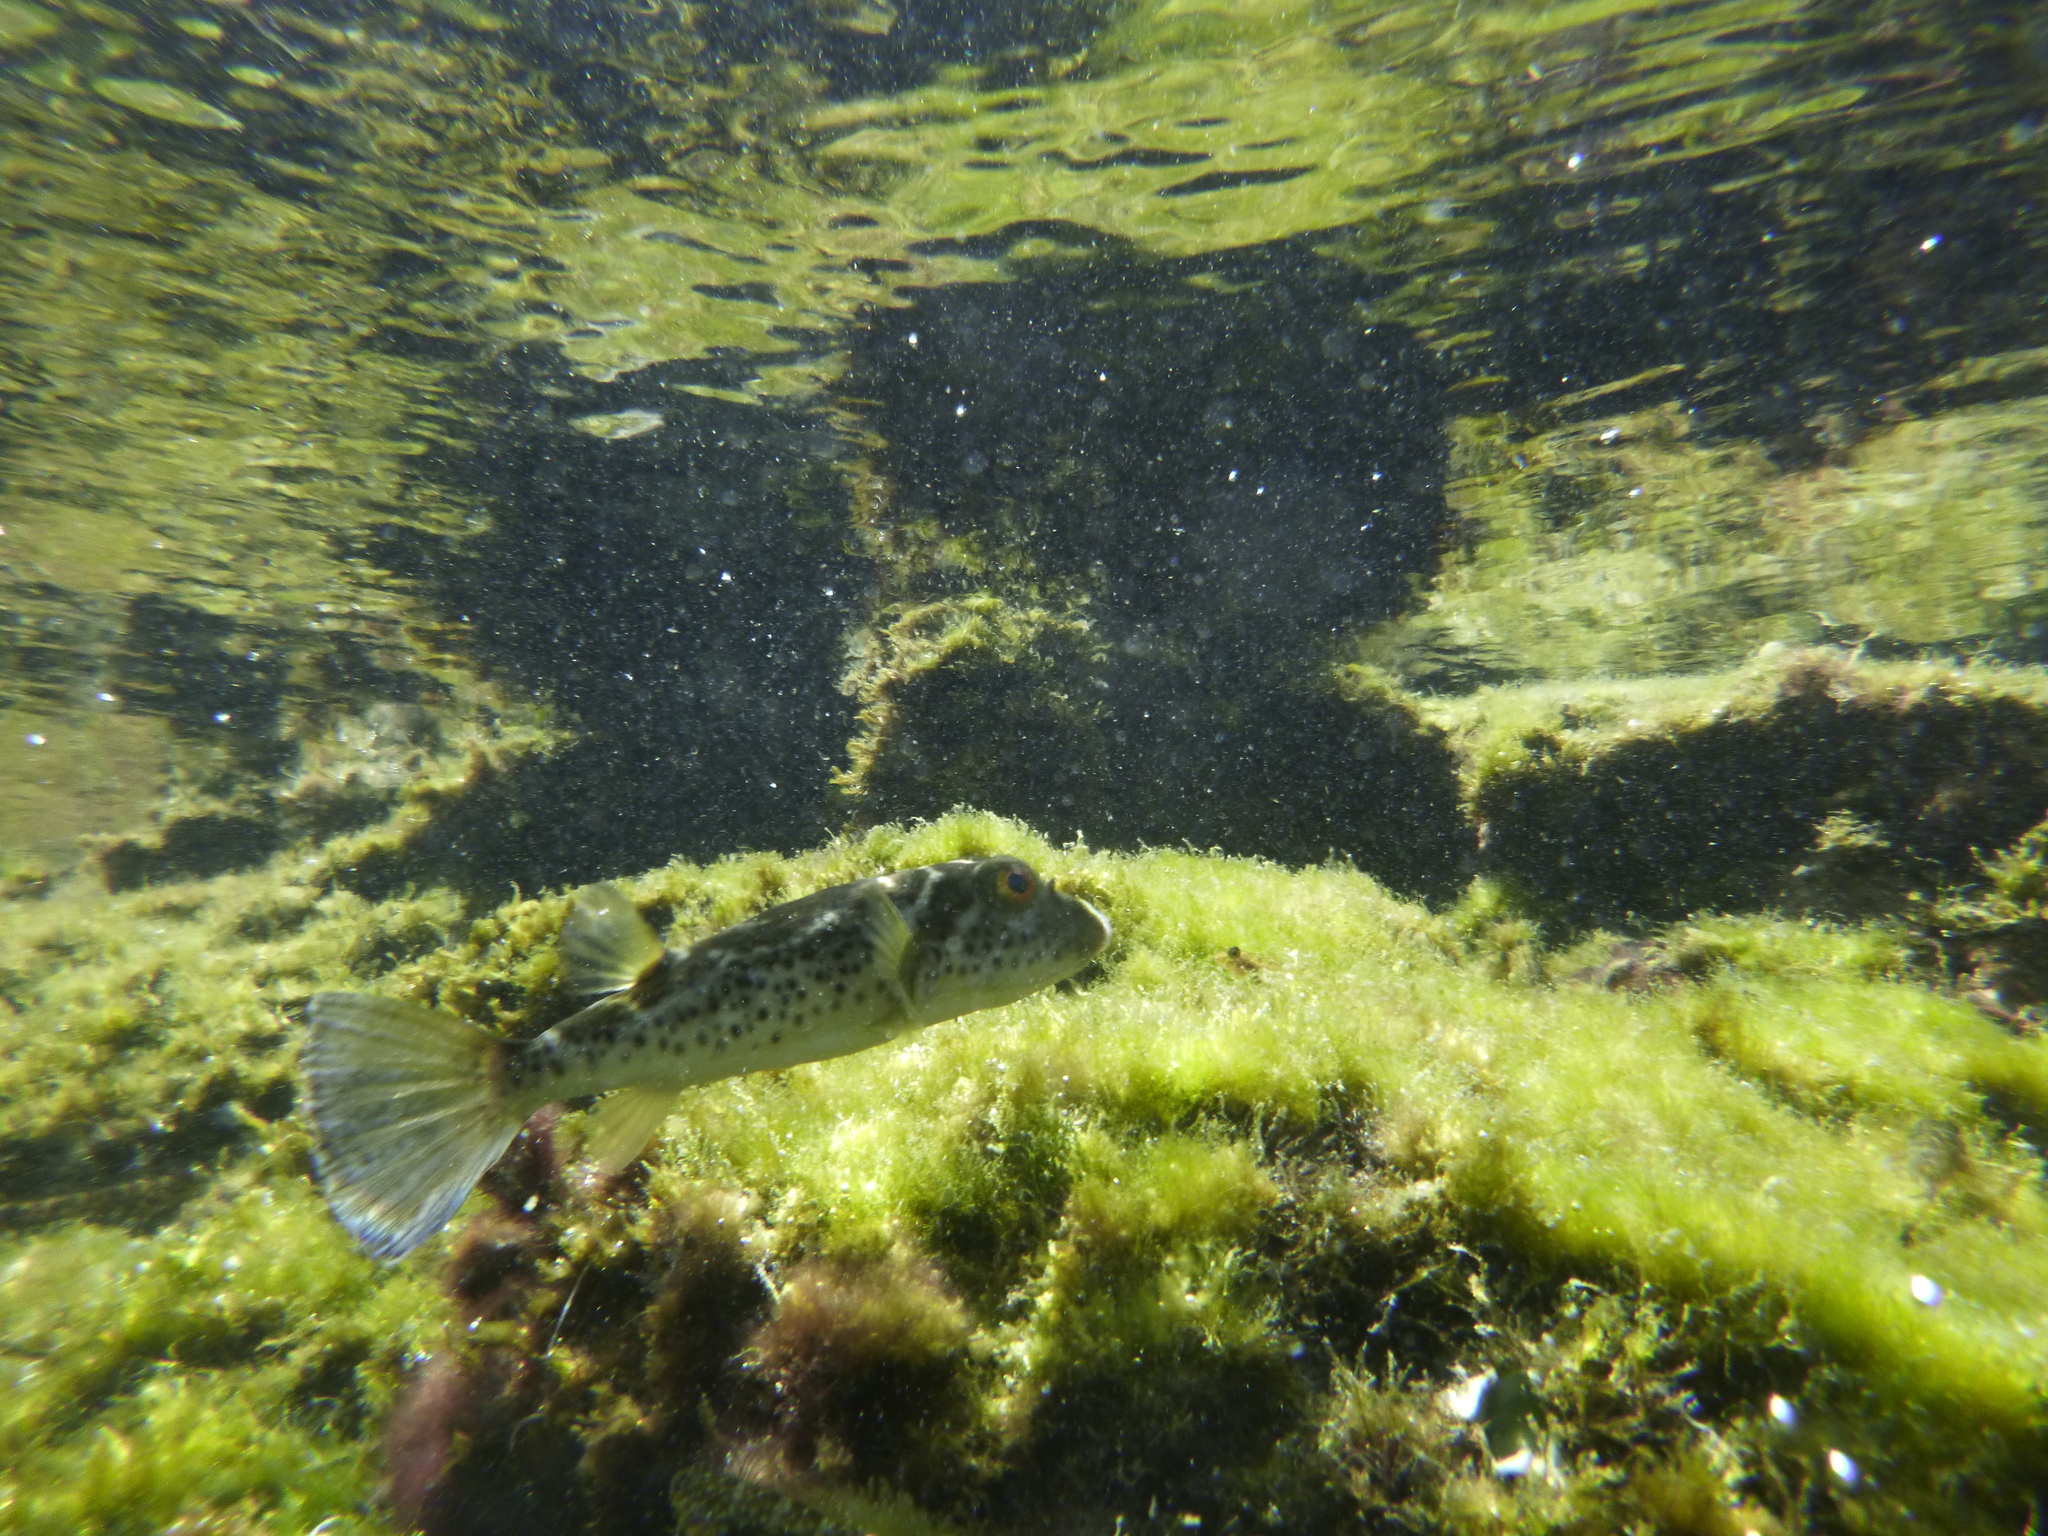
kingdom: Animalia
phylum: Chordata
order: Tetraodontiformes
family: Tetraodontidae
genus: Sphoeroides
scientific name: Sphoeroides annulatus
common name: Bullseye puffer
